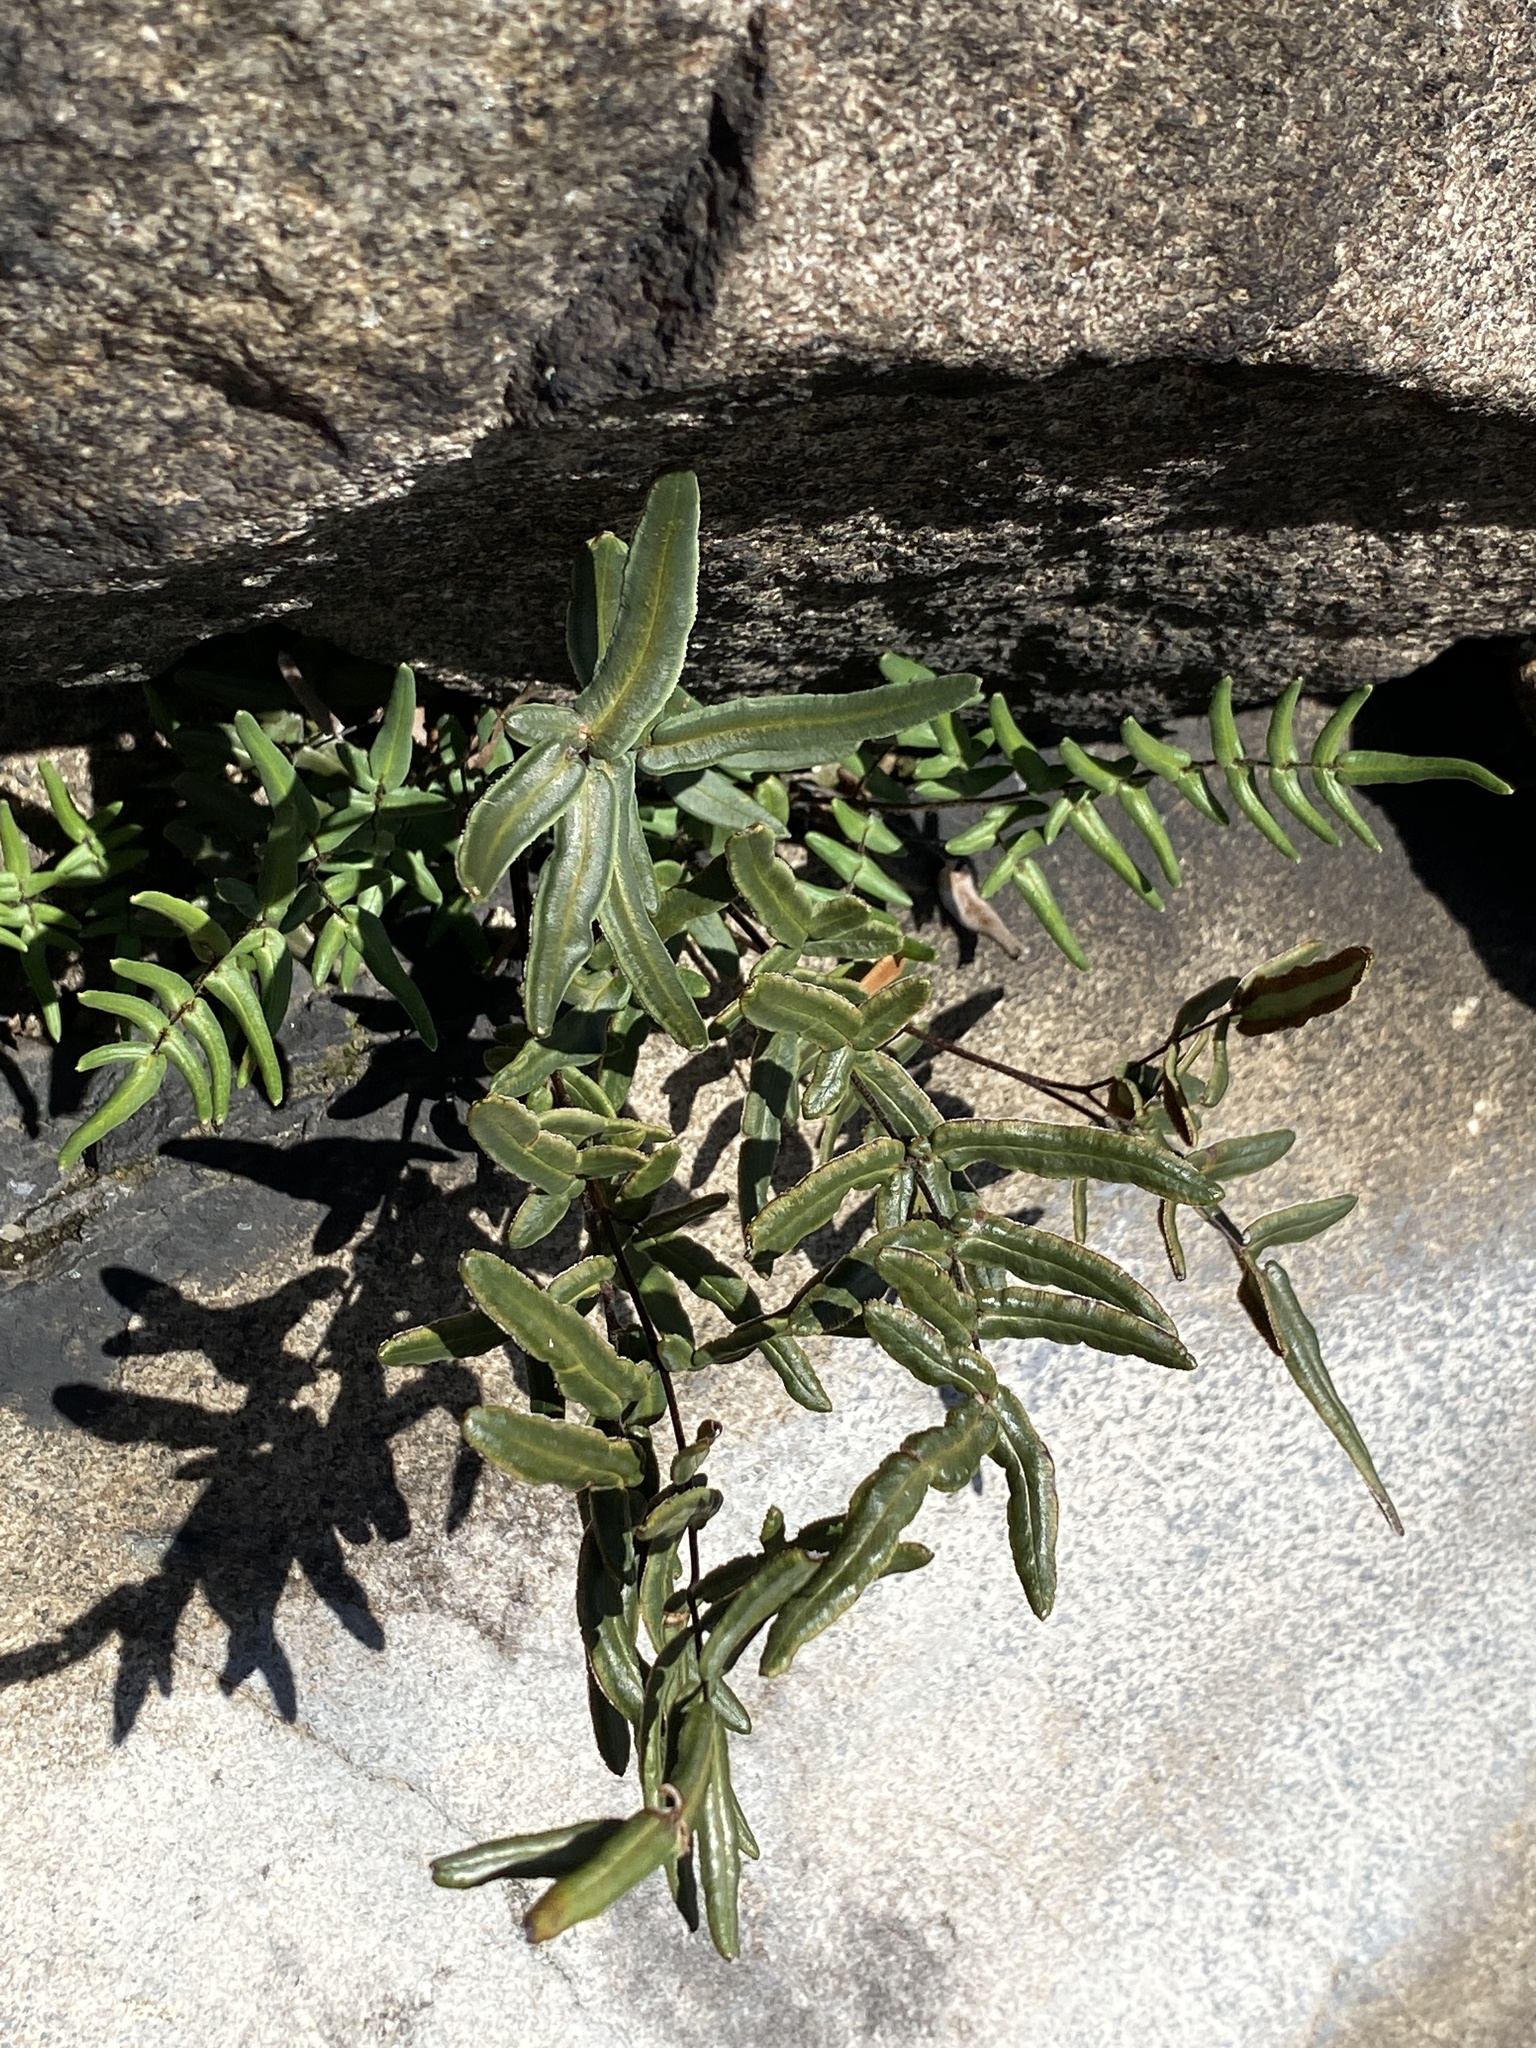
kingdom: Plantae
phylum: Tracheophyta
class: Polypodiopsida
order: Polypodiales
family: Pteridaceae
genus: Pellaea
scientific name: Pellaea atropurpurea
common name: Hairy cliffbrake
